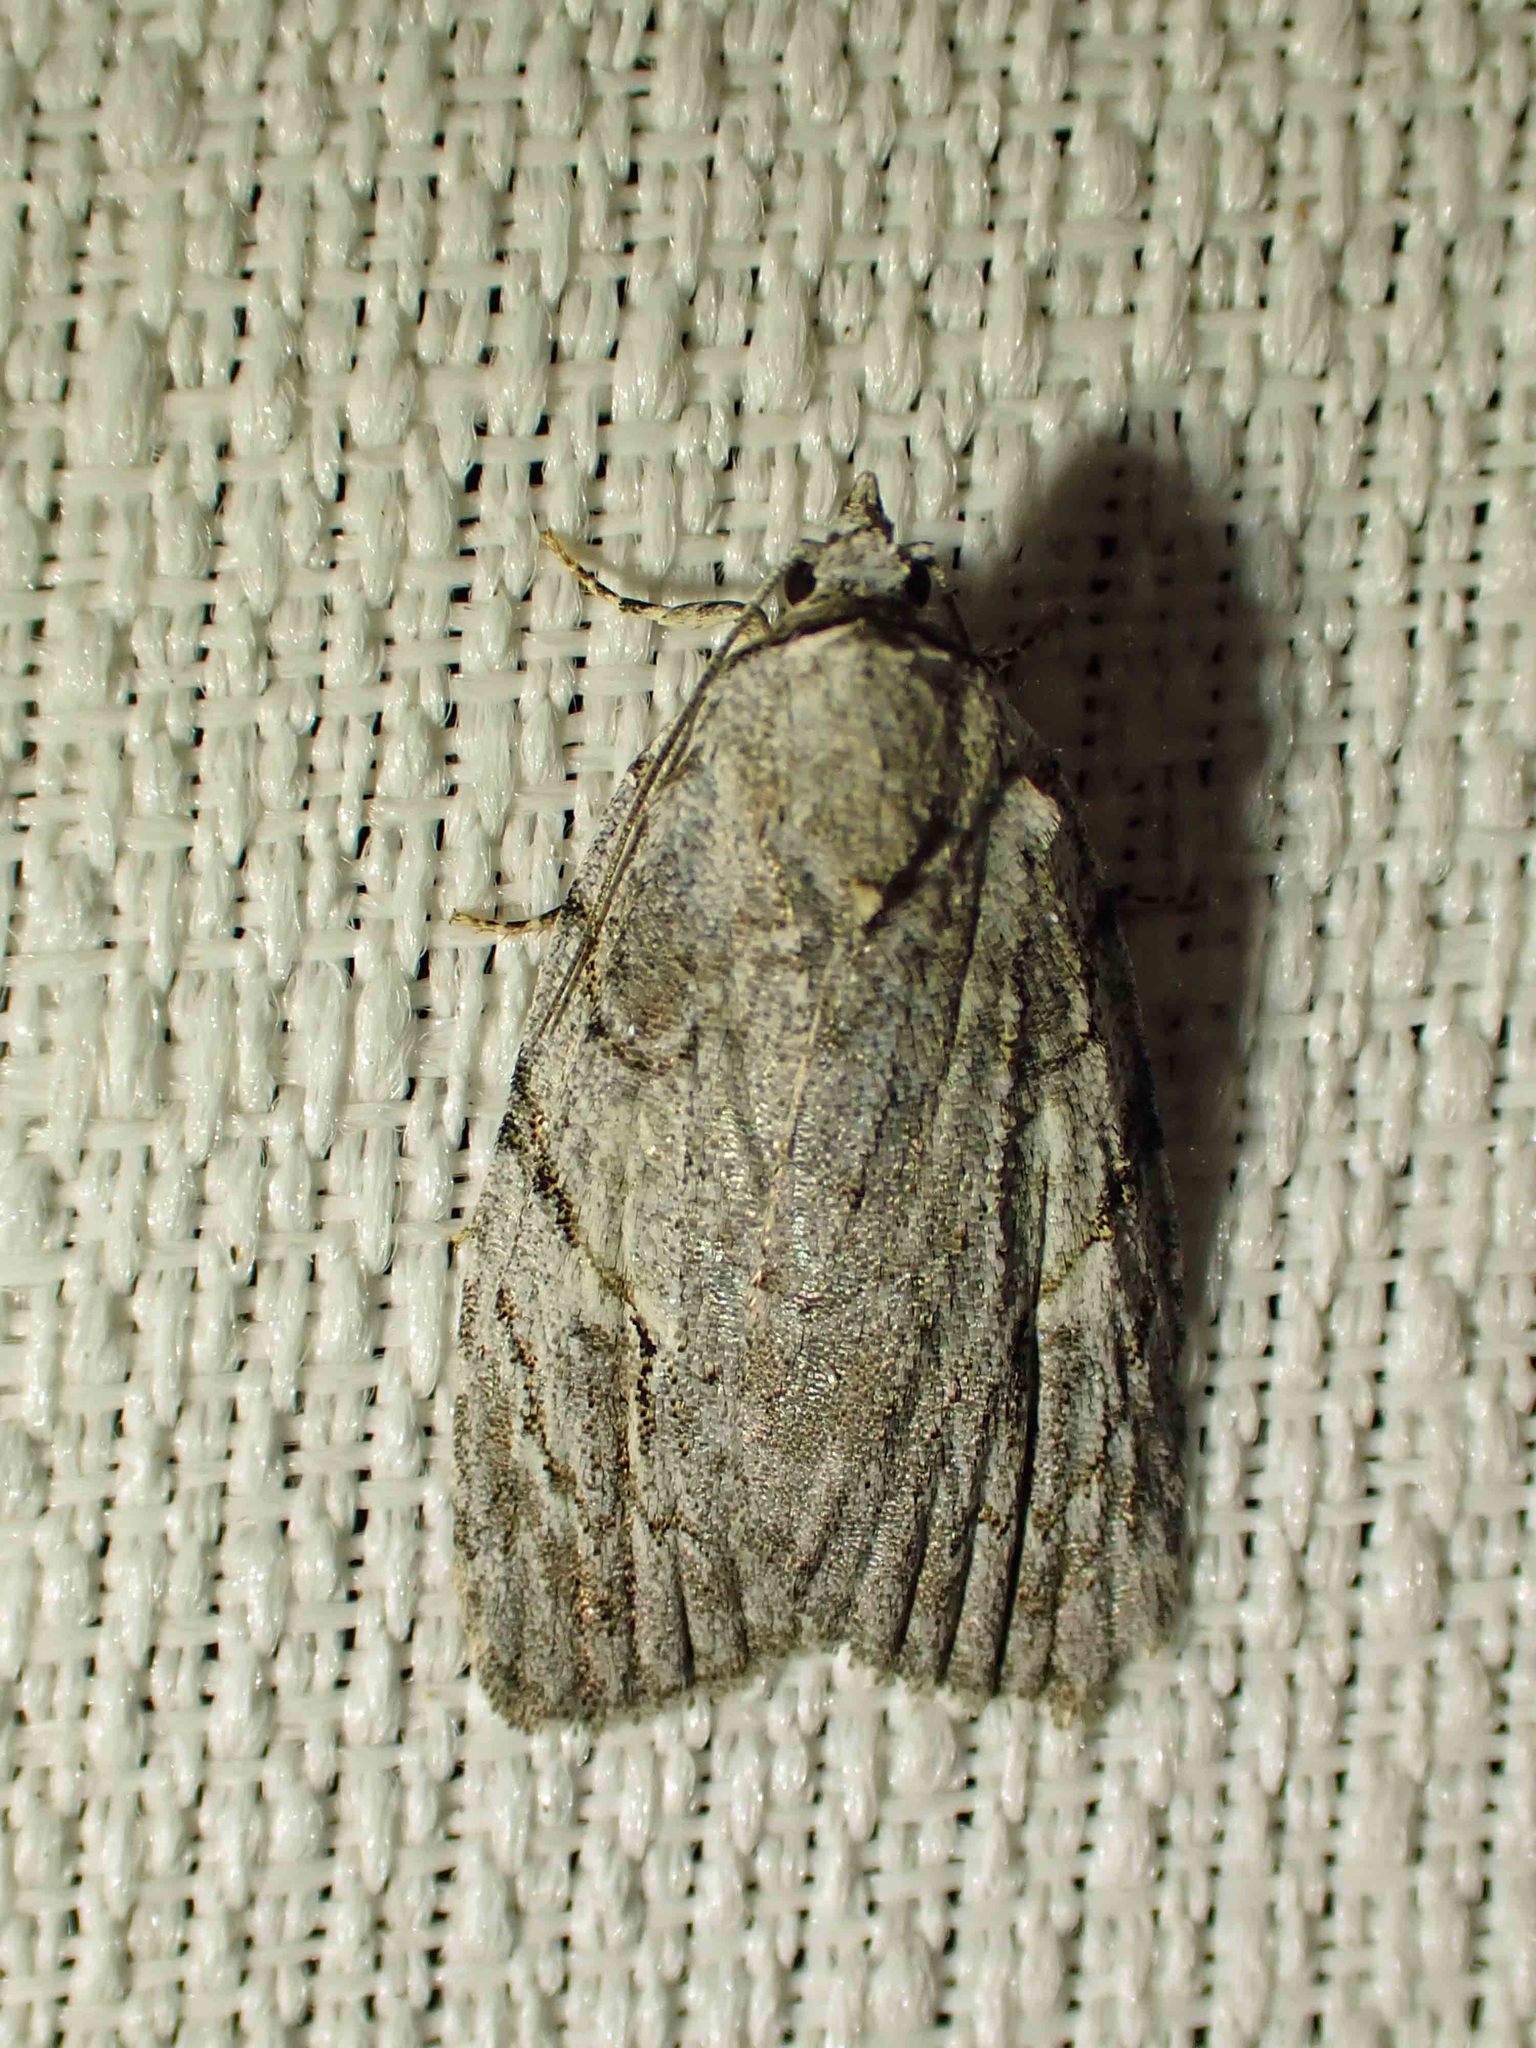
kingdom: Animalia
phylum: Arthropoda
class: Insecta
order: Lepidoptera
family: Noctuidae
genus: Balsa
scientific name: Balsa labecula
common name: White-blotched balsa moth
